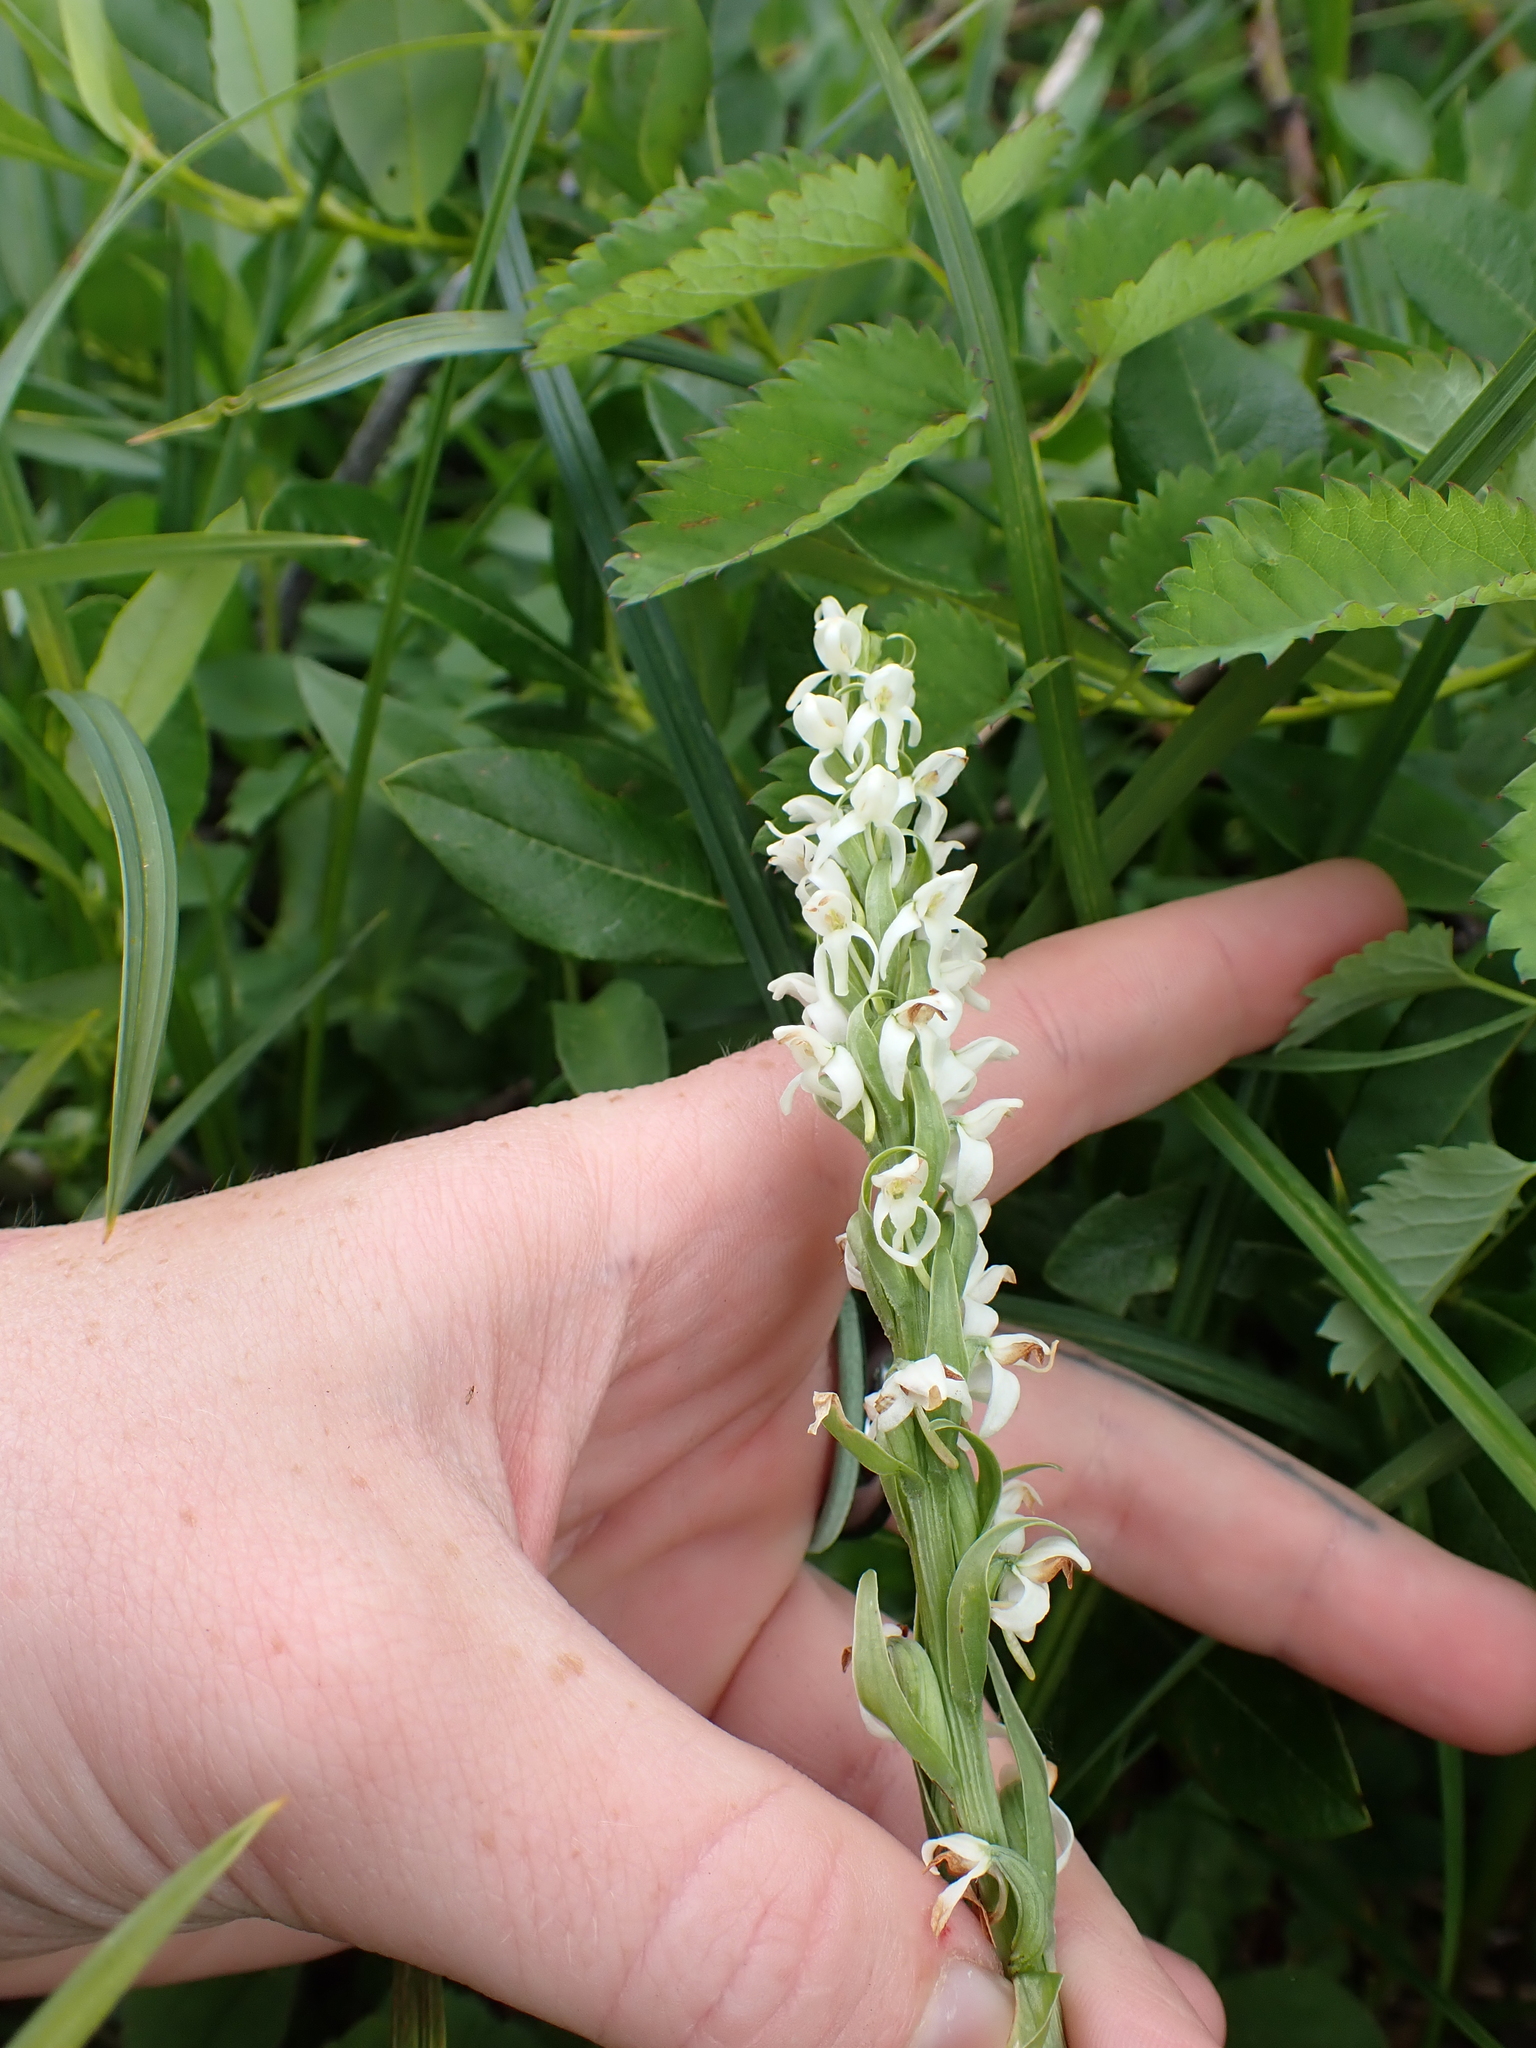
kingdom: Plantae
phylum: Tracheophyta
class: Liliopsida
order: Asparagales
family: Orchidaceae
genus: Platanthera
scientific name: Platanthera dilatata
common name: Bog candles
